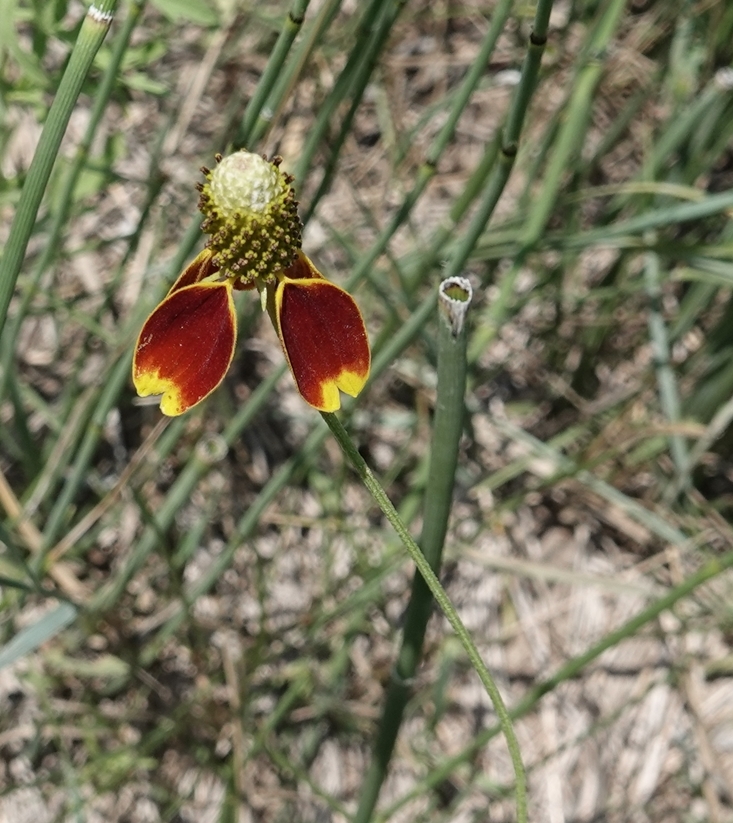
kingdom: Plantae
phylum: Tracheophyta
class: Magnoliopsida
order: Asterales
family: Asteraceae
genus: Ratibida
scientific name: Ratibida columnifera
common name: Prairie coneflower
